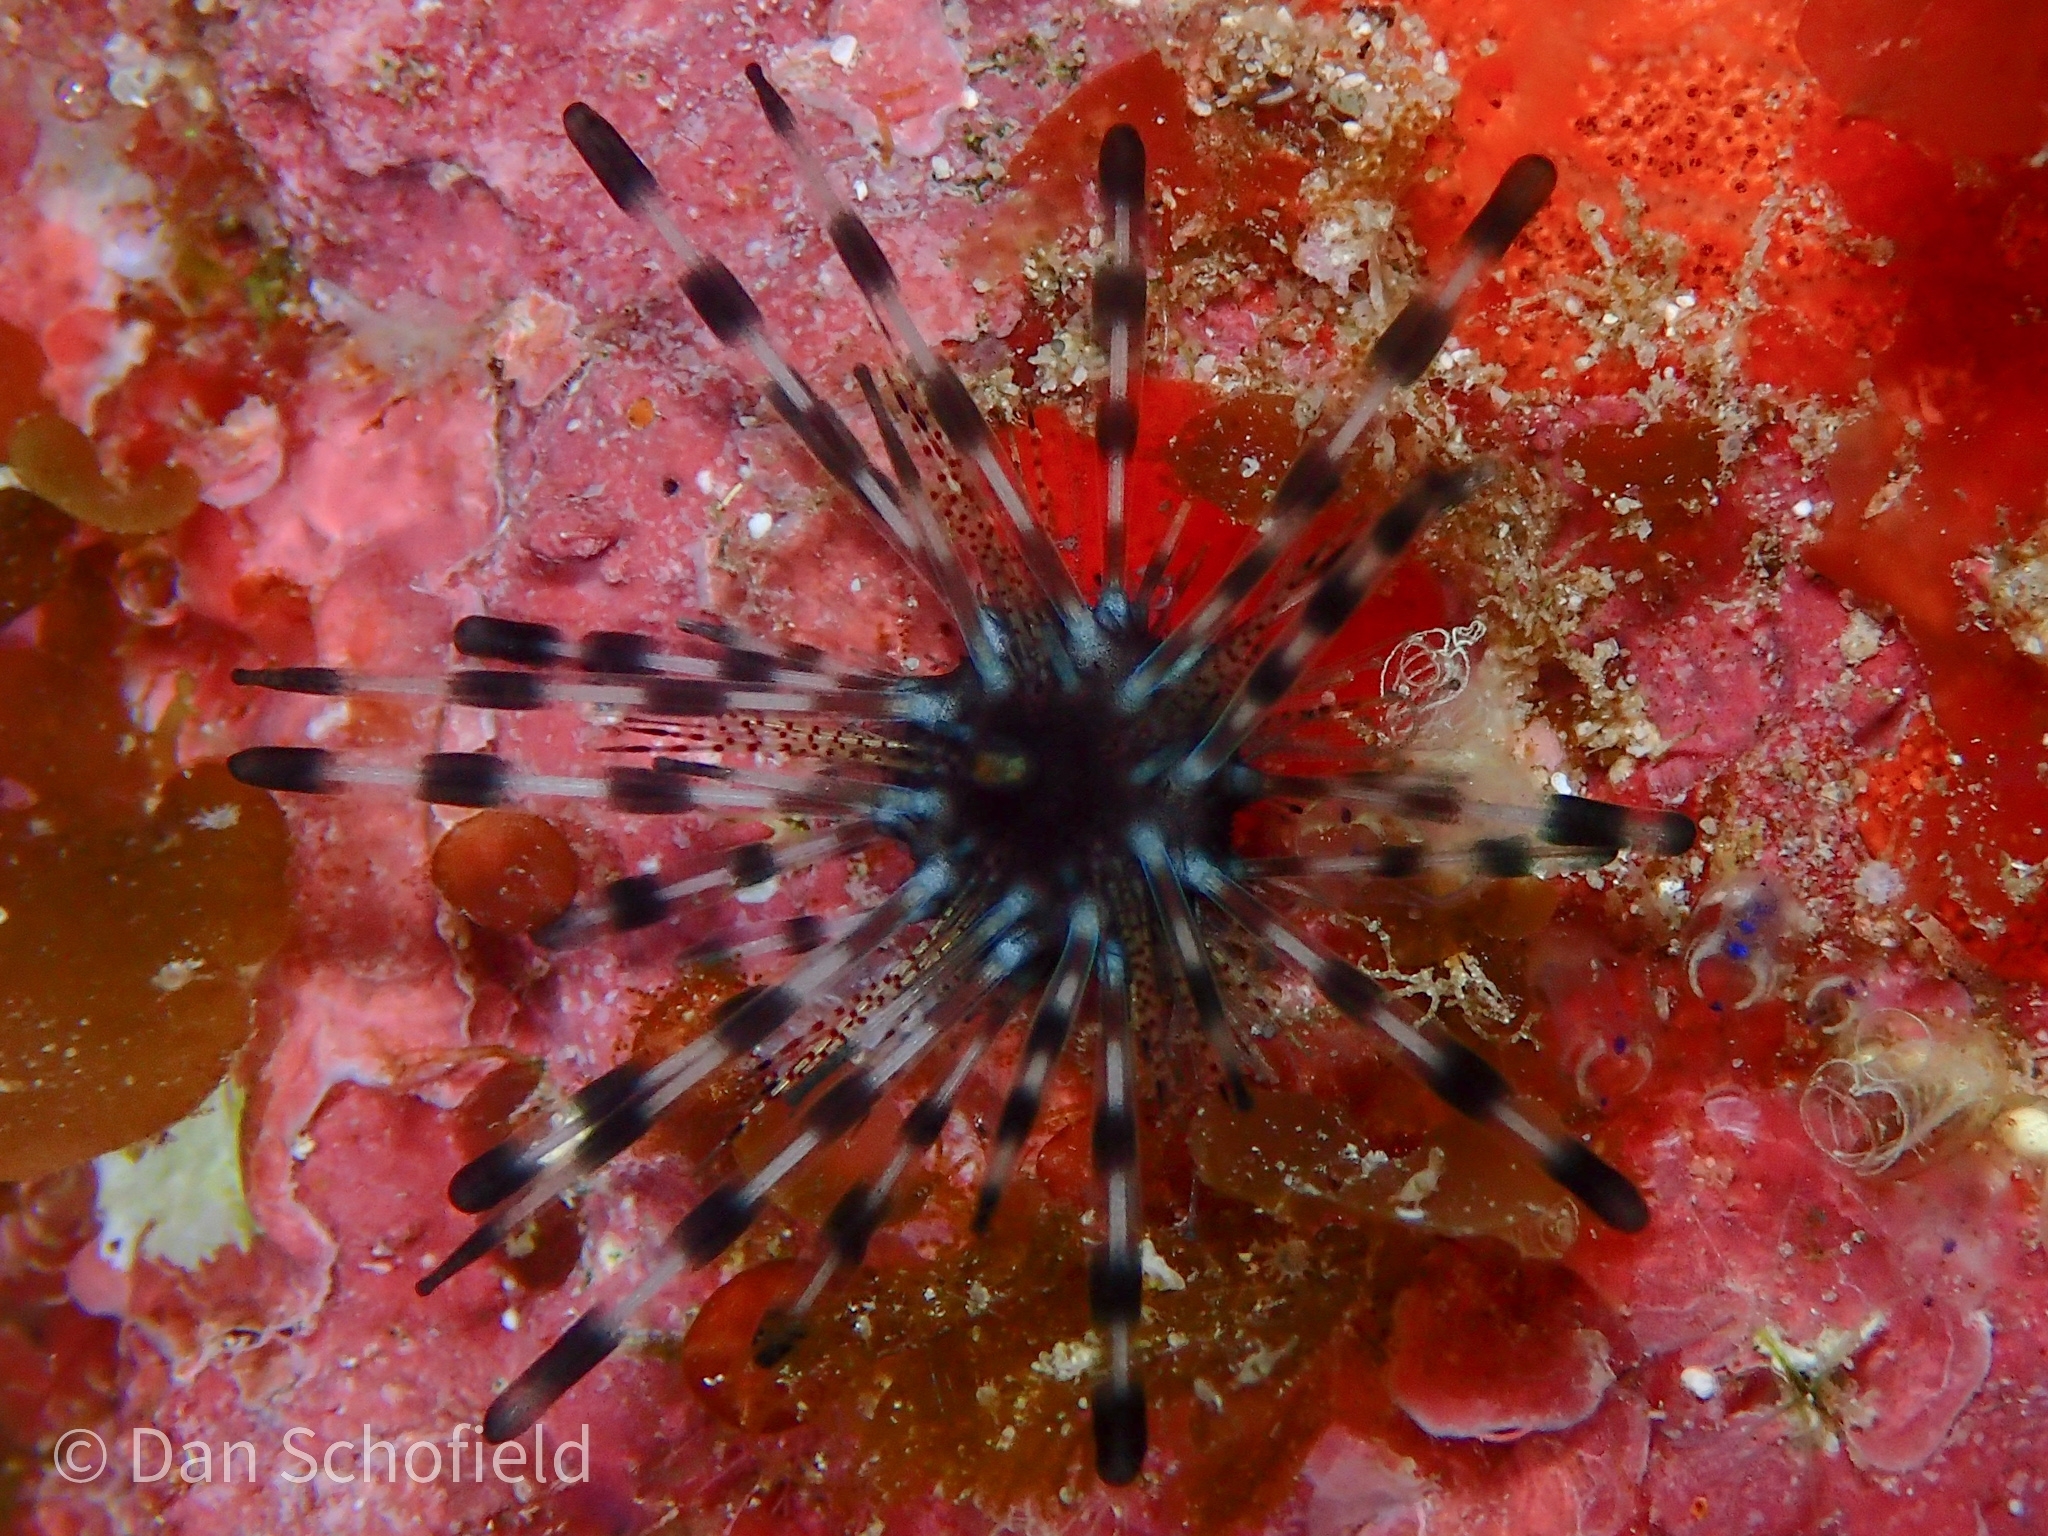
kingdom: Animalia
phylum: Echinodermata
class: Echinoidea
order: Diadematoida
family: Diadematidae
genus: Echinothrix
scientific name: Echinothrix diadema
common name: Schwarzer diademseeigel
